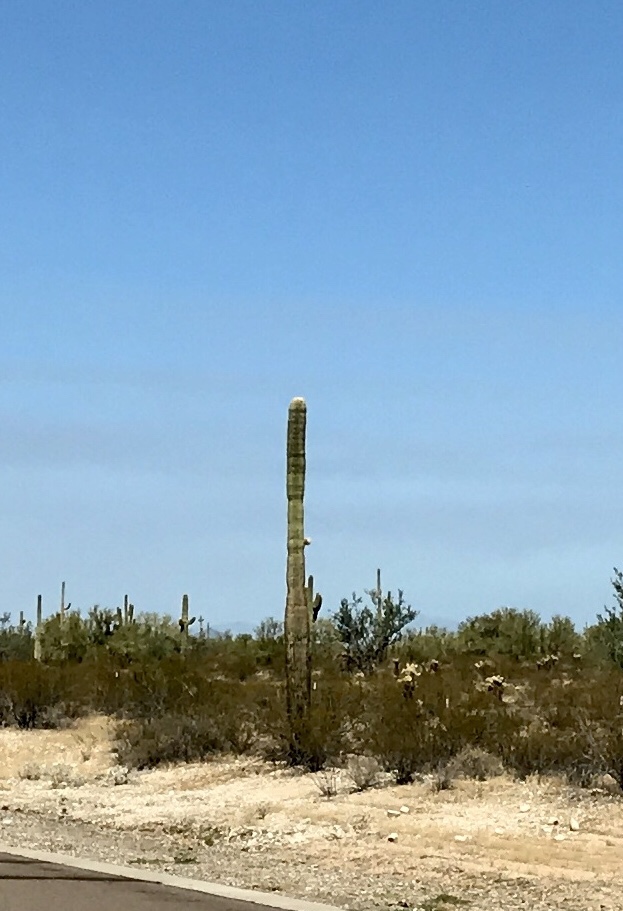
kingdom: Plantae
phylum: Tracheophyta
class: Magnoliopsida
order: Caryophyllales
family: Cactaceae
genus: Carnegiea
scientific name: Carnegiea gigantea
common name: Saguaro
